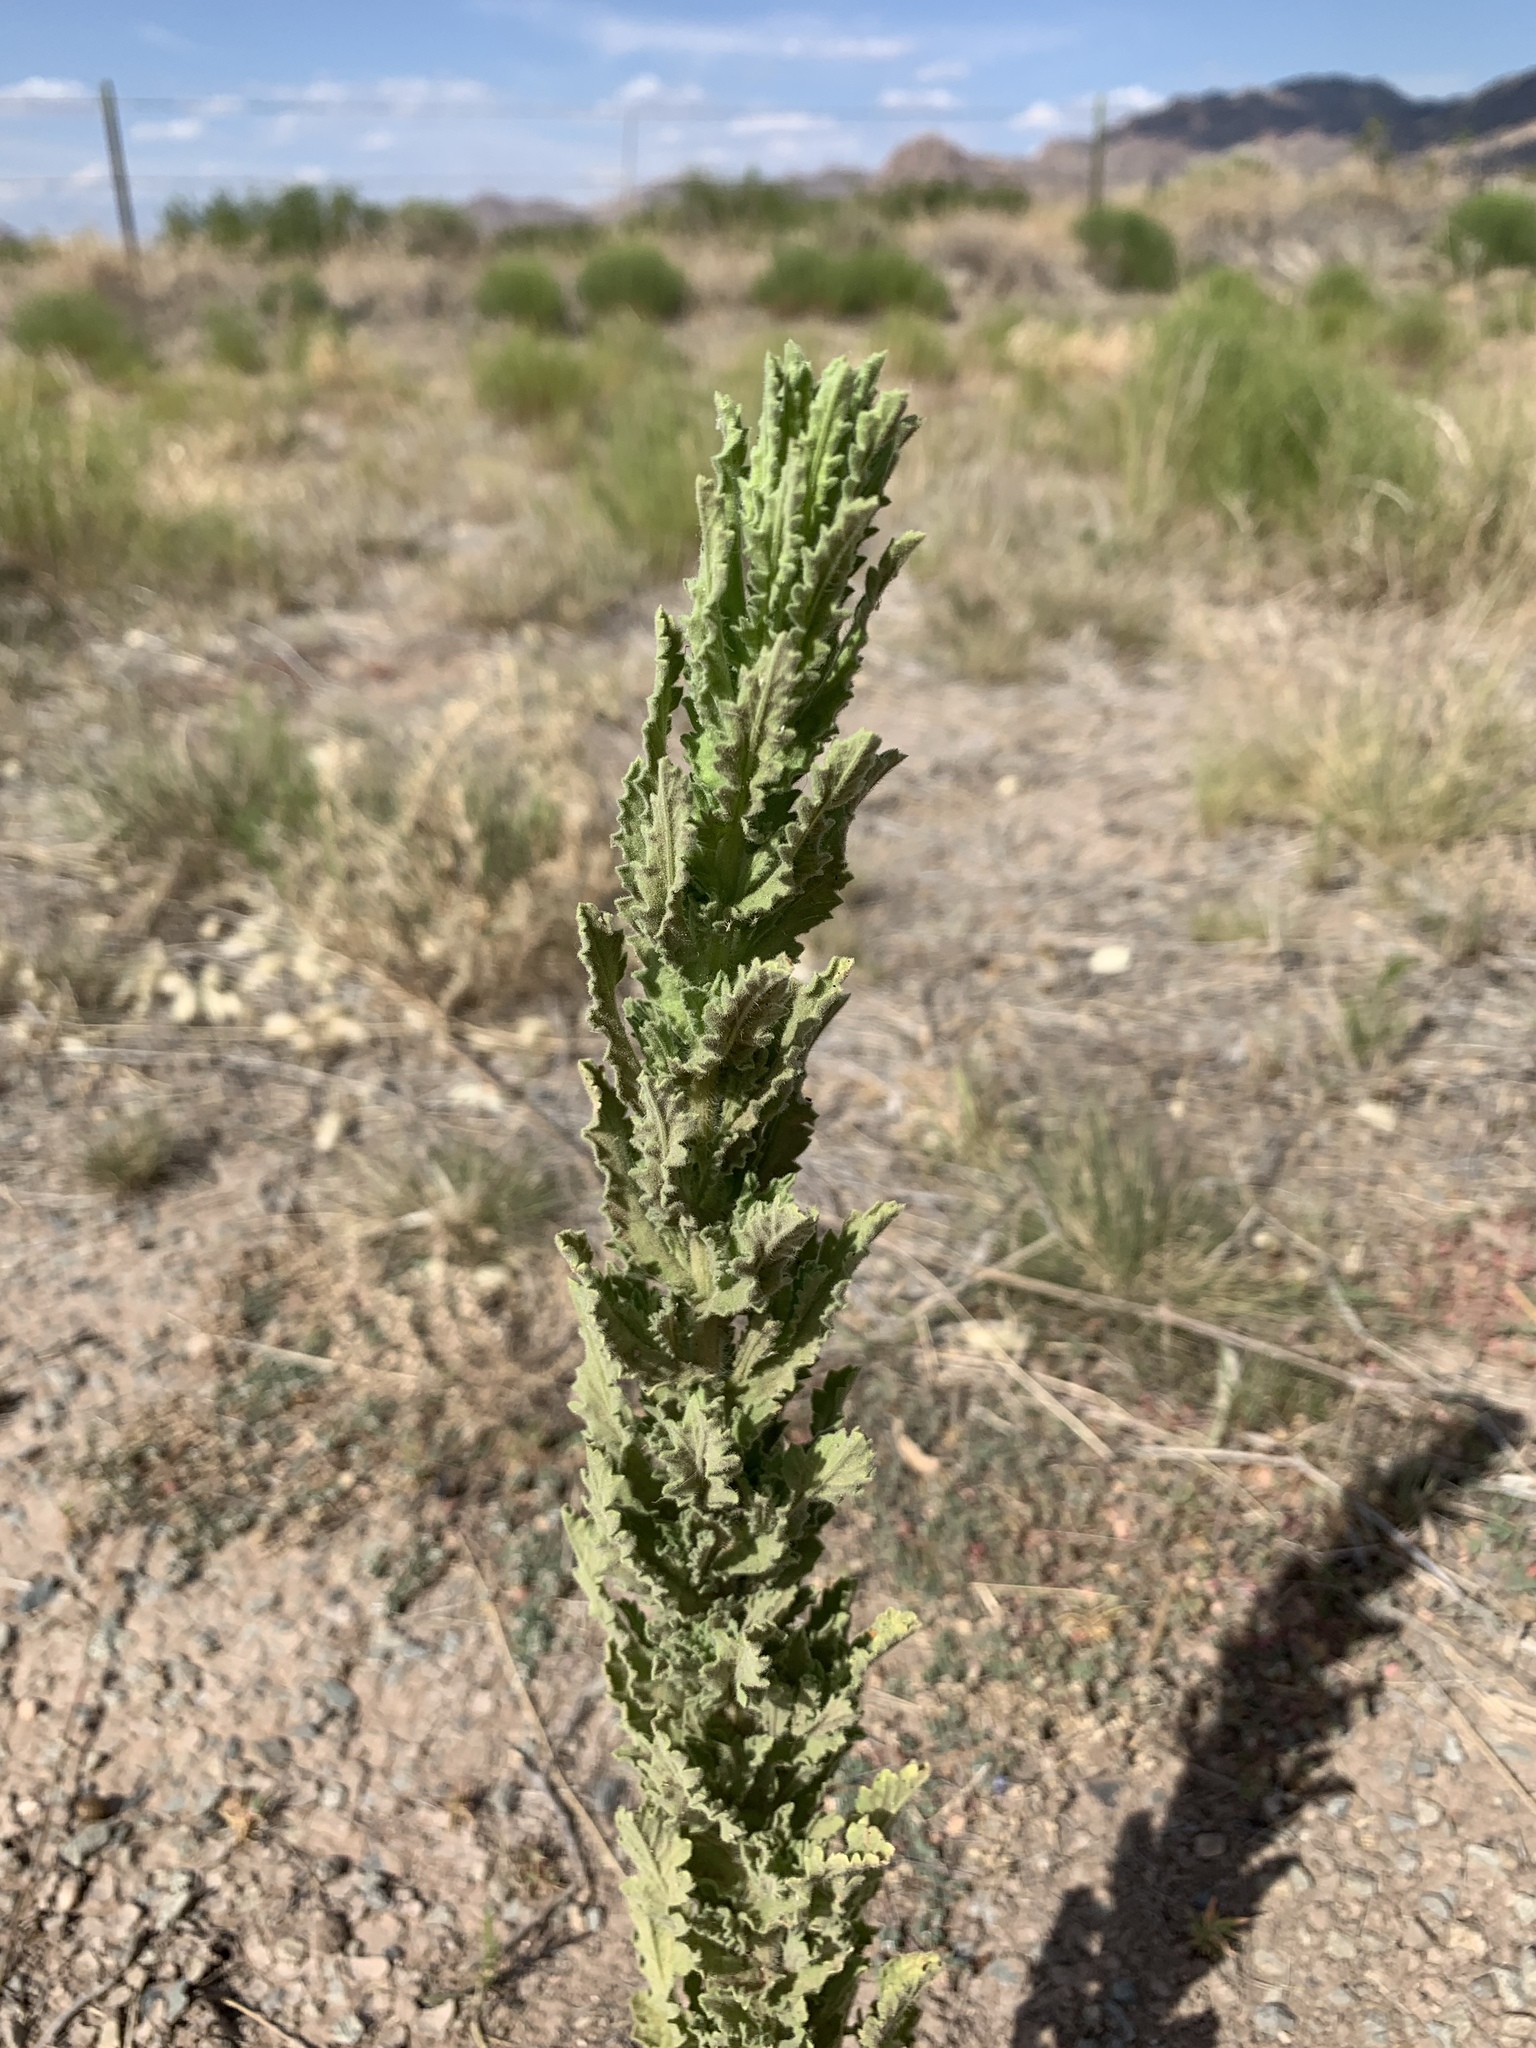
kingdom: Plantae
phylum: Tracheophyta
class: Magnoliopsida
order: Asterales
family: Asteraceae
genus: Laennecia
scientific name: Laennecia coulteri
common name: Coulter's woolwort
